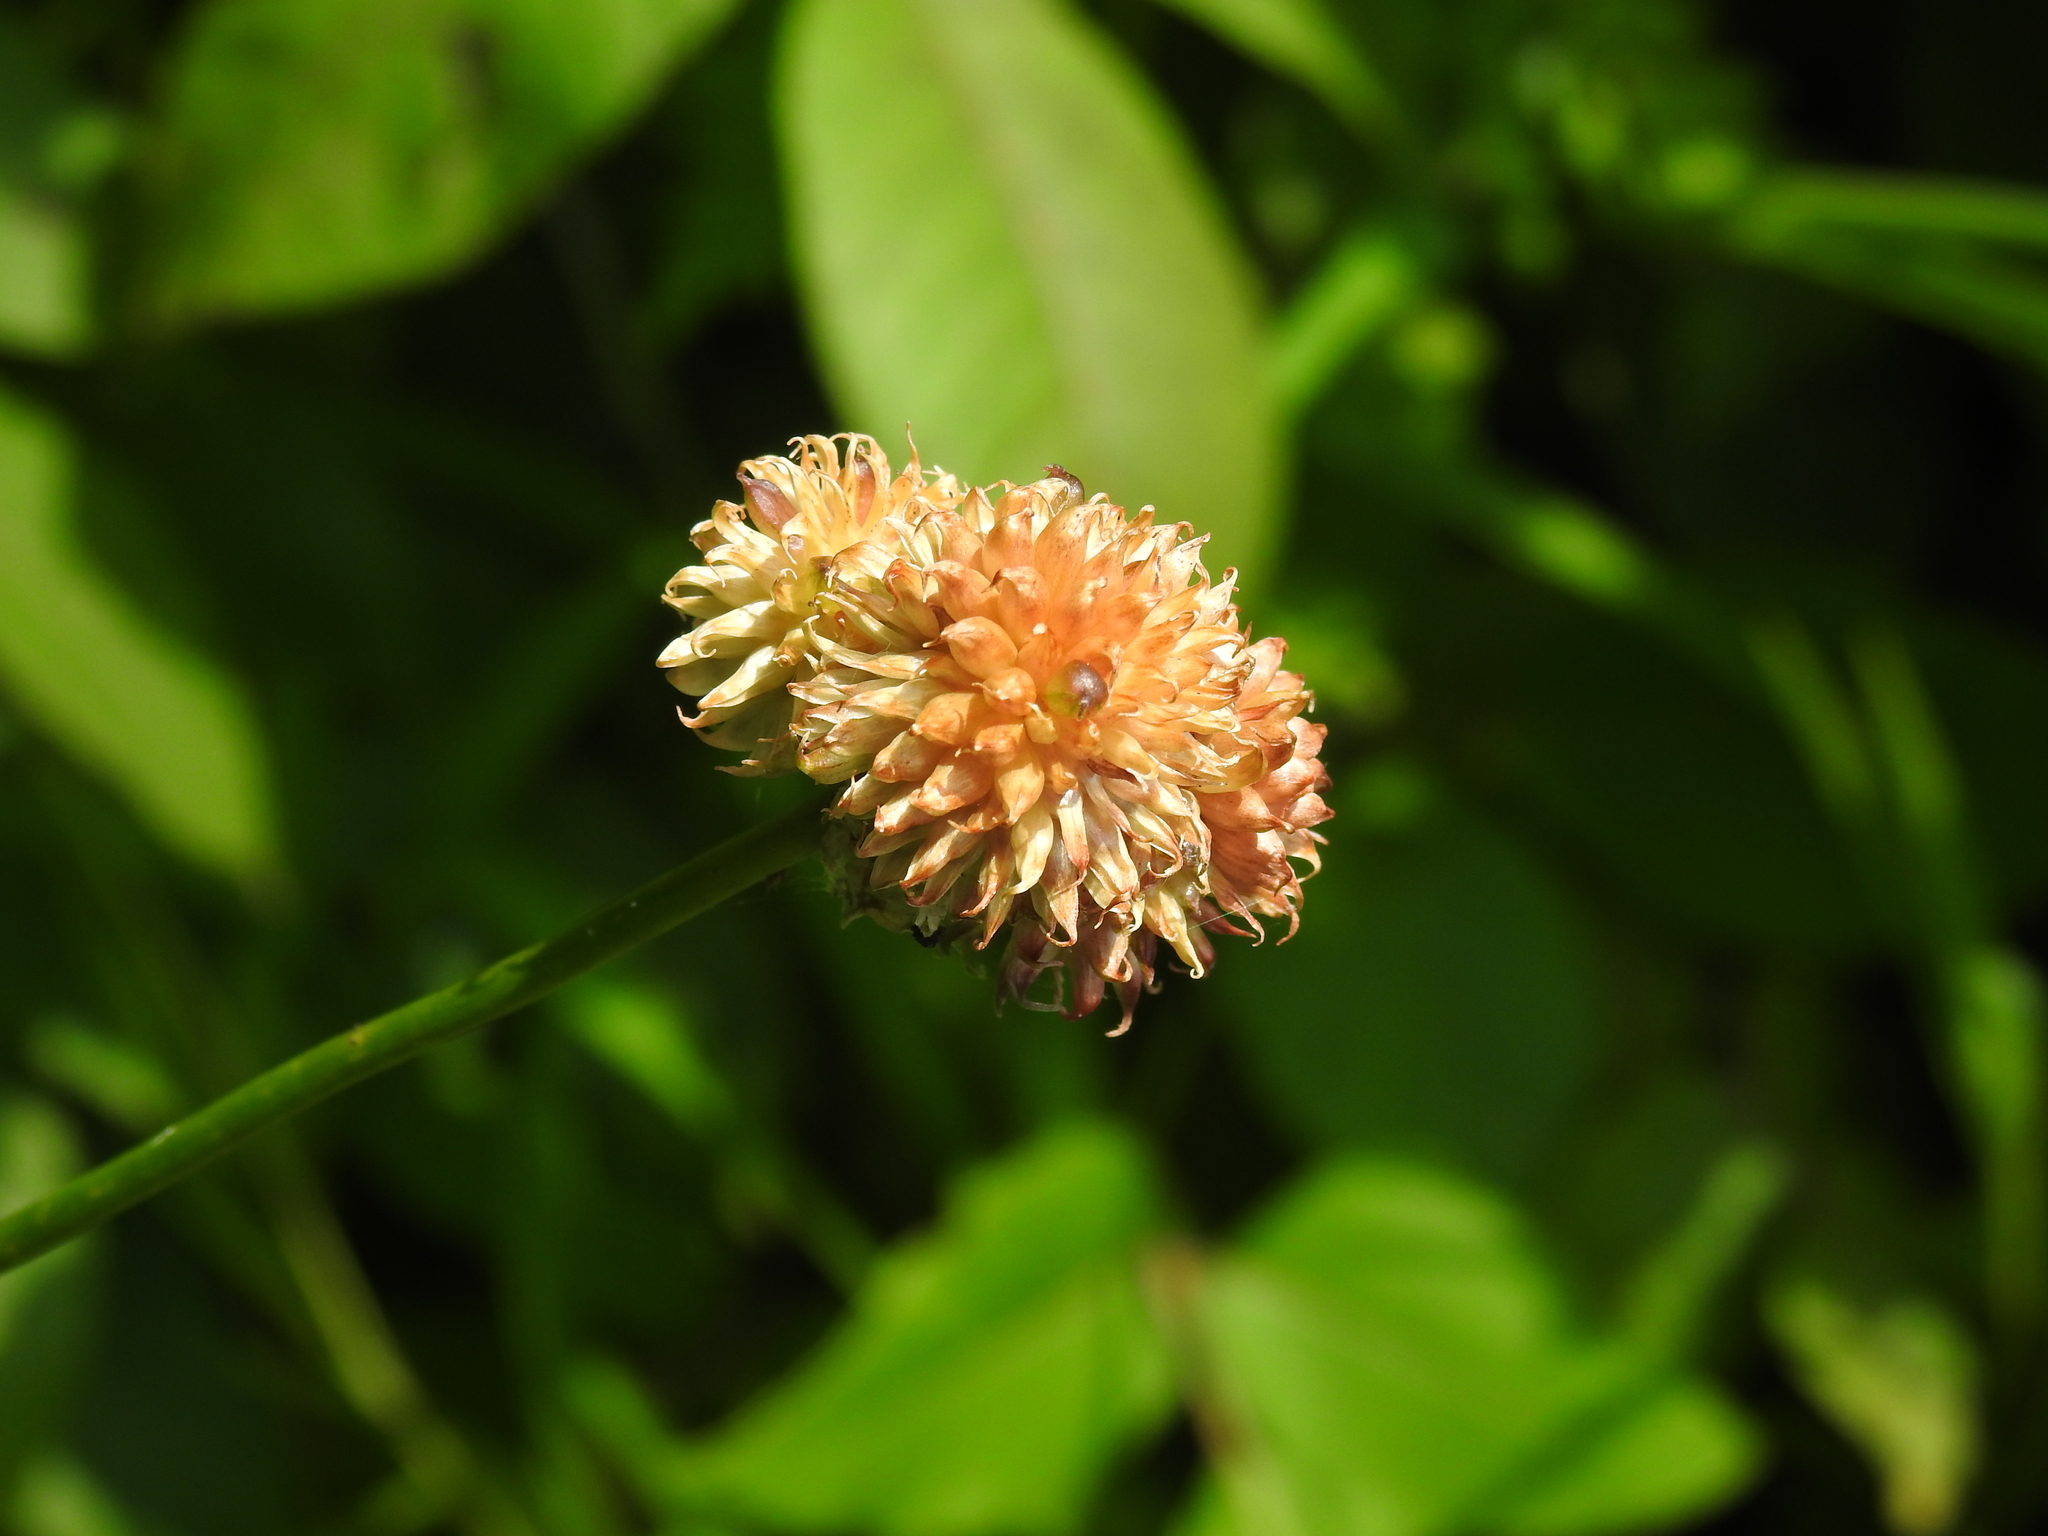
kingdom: Plantae
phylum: Tracheophyta
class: Liliopsida
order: Asparagales
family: Amaryllidaceae
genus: Allium
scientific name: Allium vineale
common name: Crow garlic
